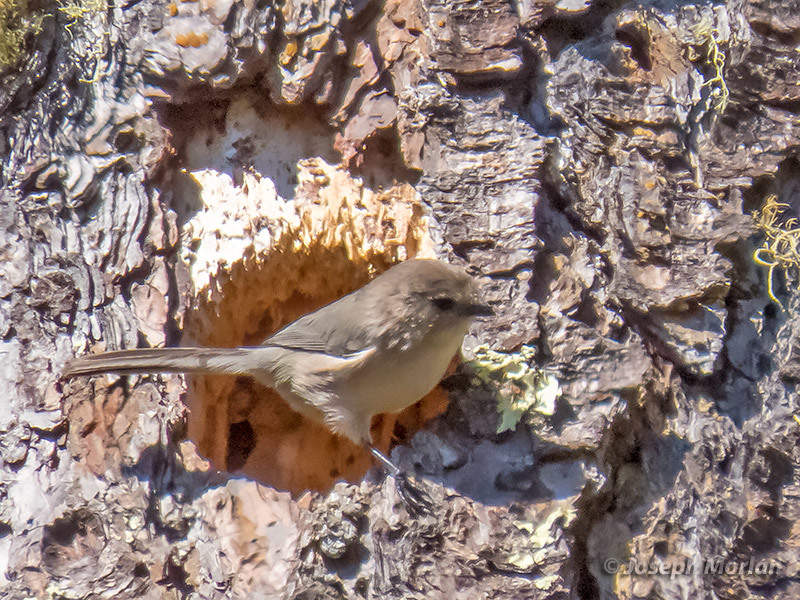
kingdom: Animalia
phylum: Chordata
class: Aves
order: Passeriformes
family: Aegithalidae
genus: Psaltriparus
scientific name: Psaltriparus minimus
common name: American bushtit
